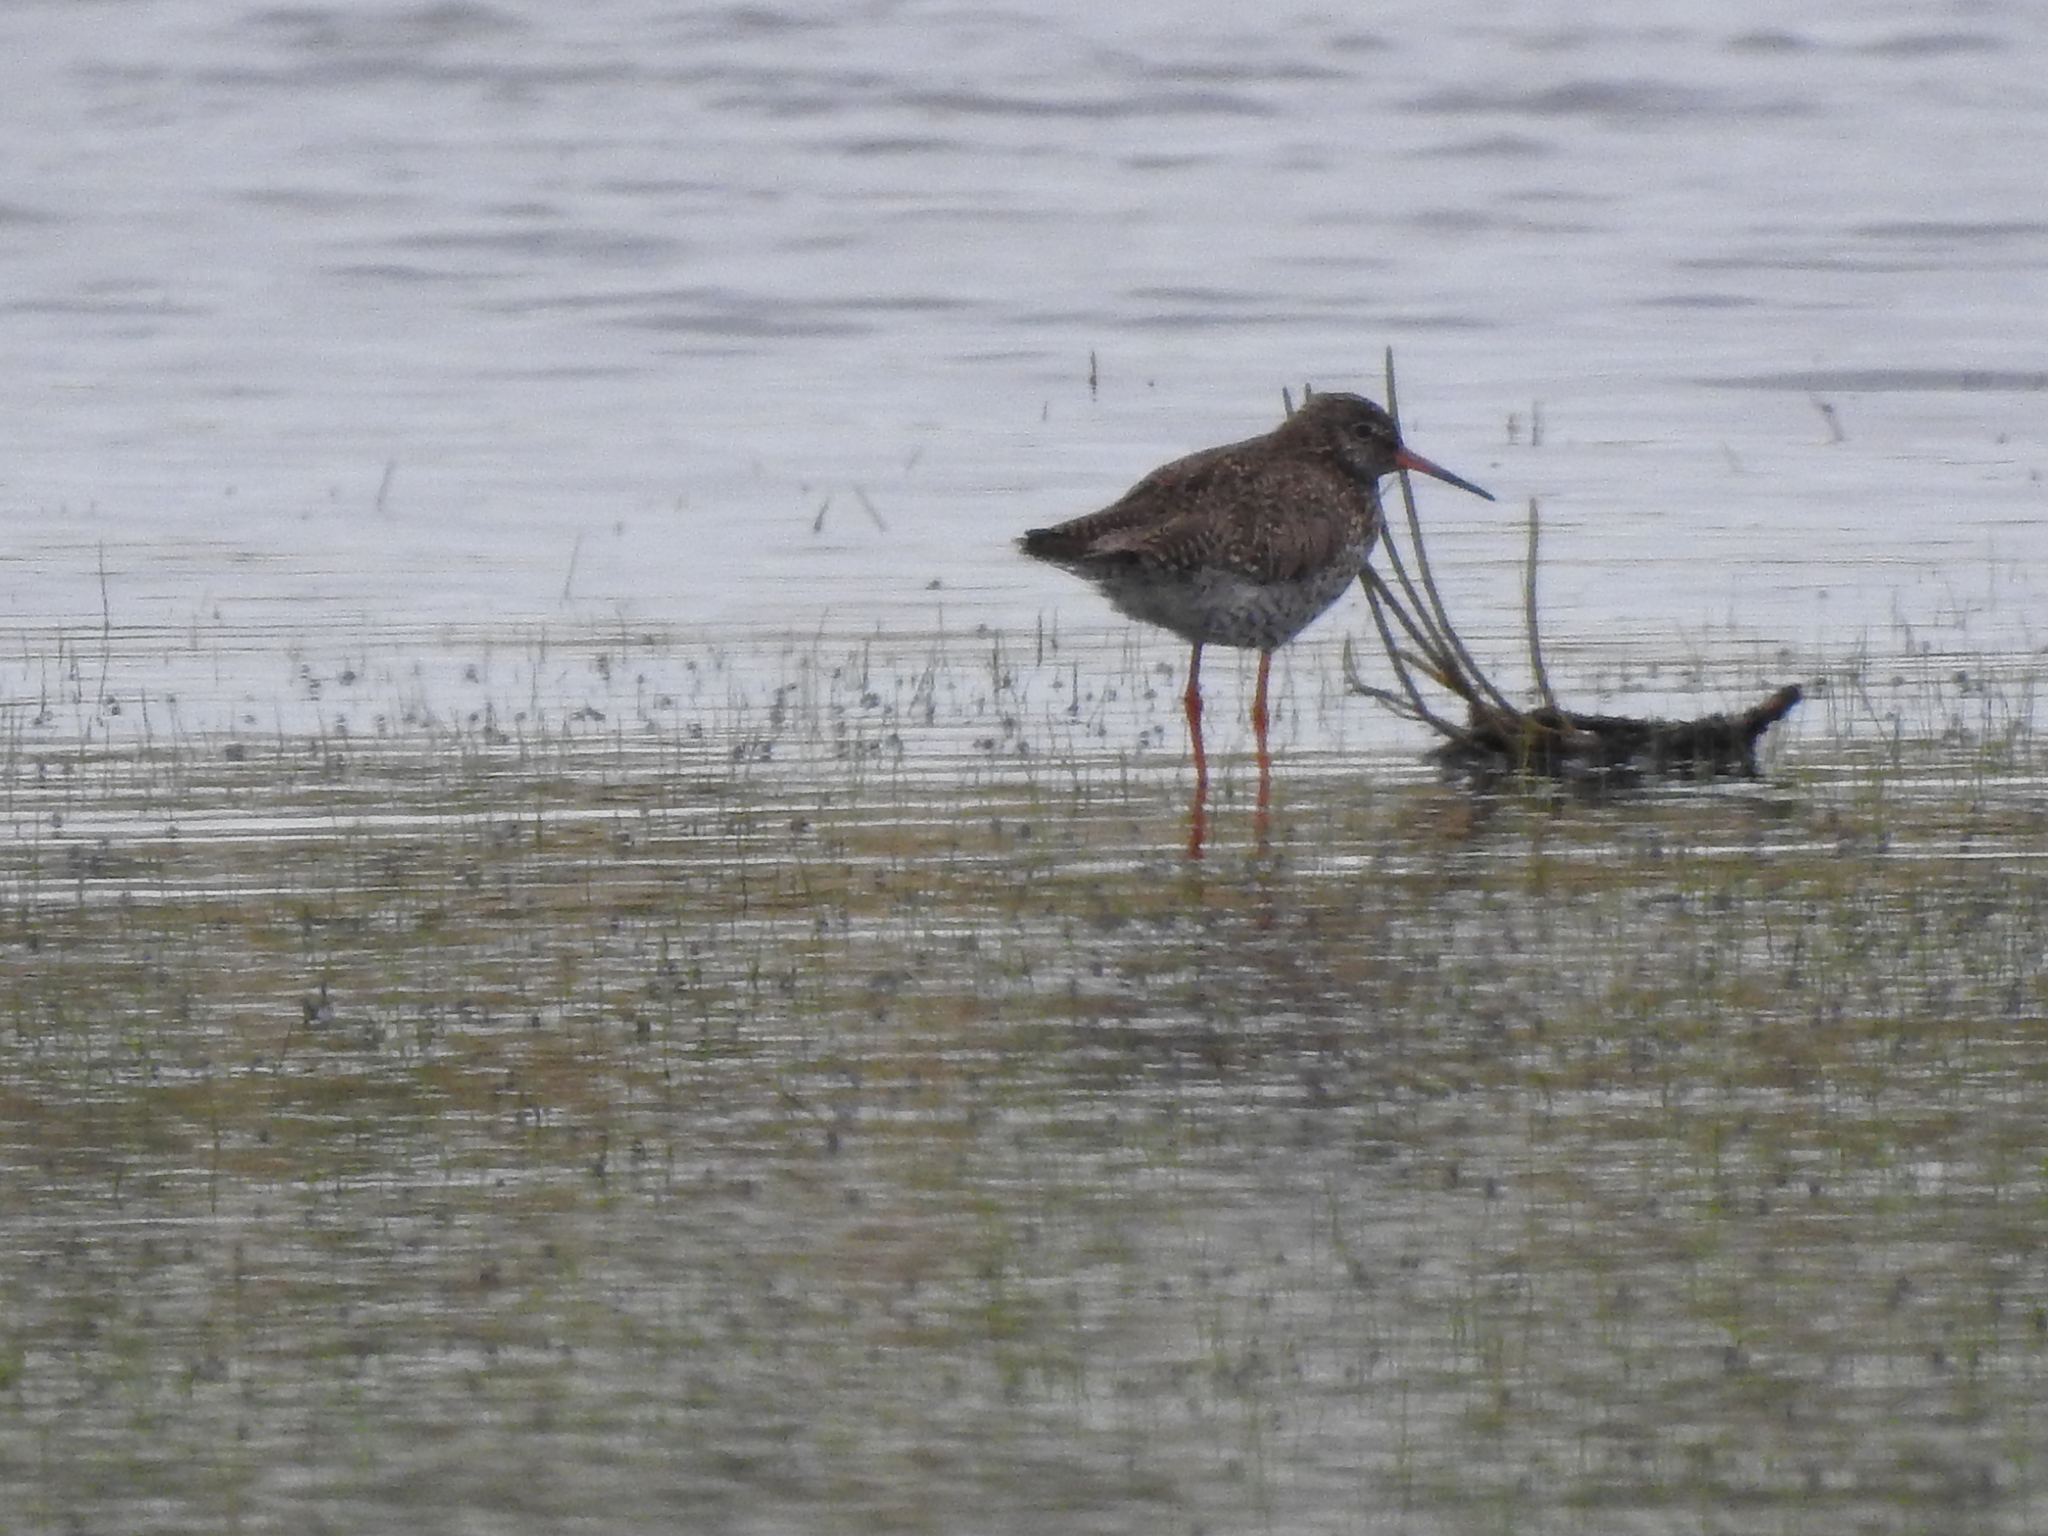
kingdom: Animalia
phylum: Chordata
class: Aves
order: Charadriiformes
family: Scolopacidae
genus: Tringa
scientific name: Tringa totanus
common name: Common redshank
